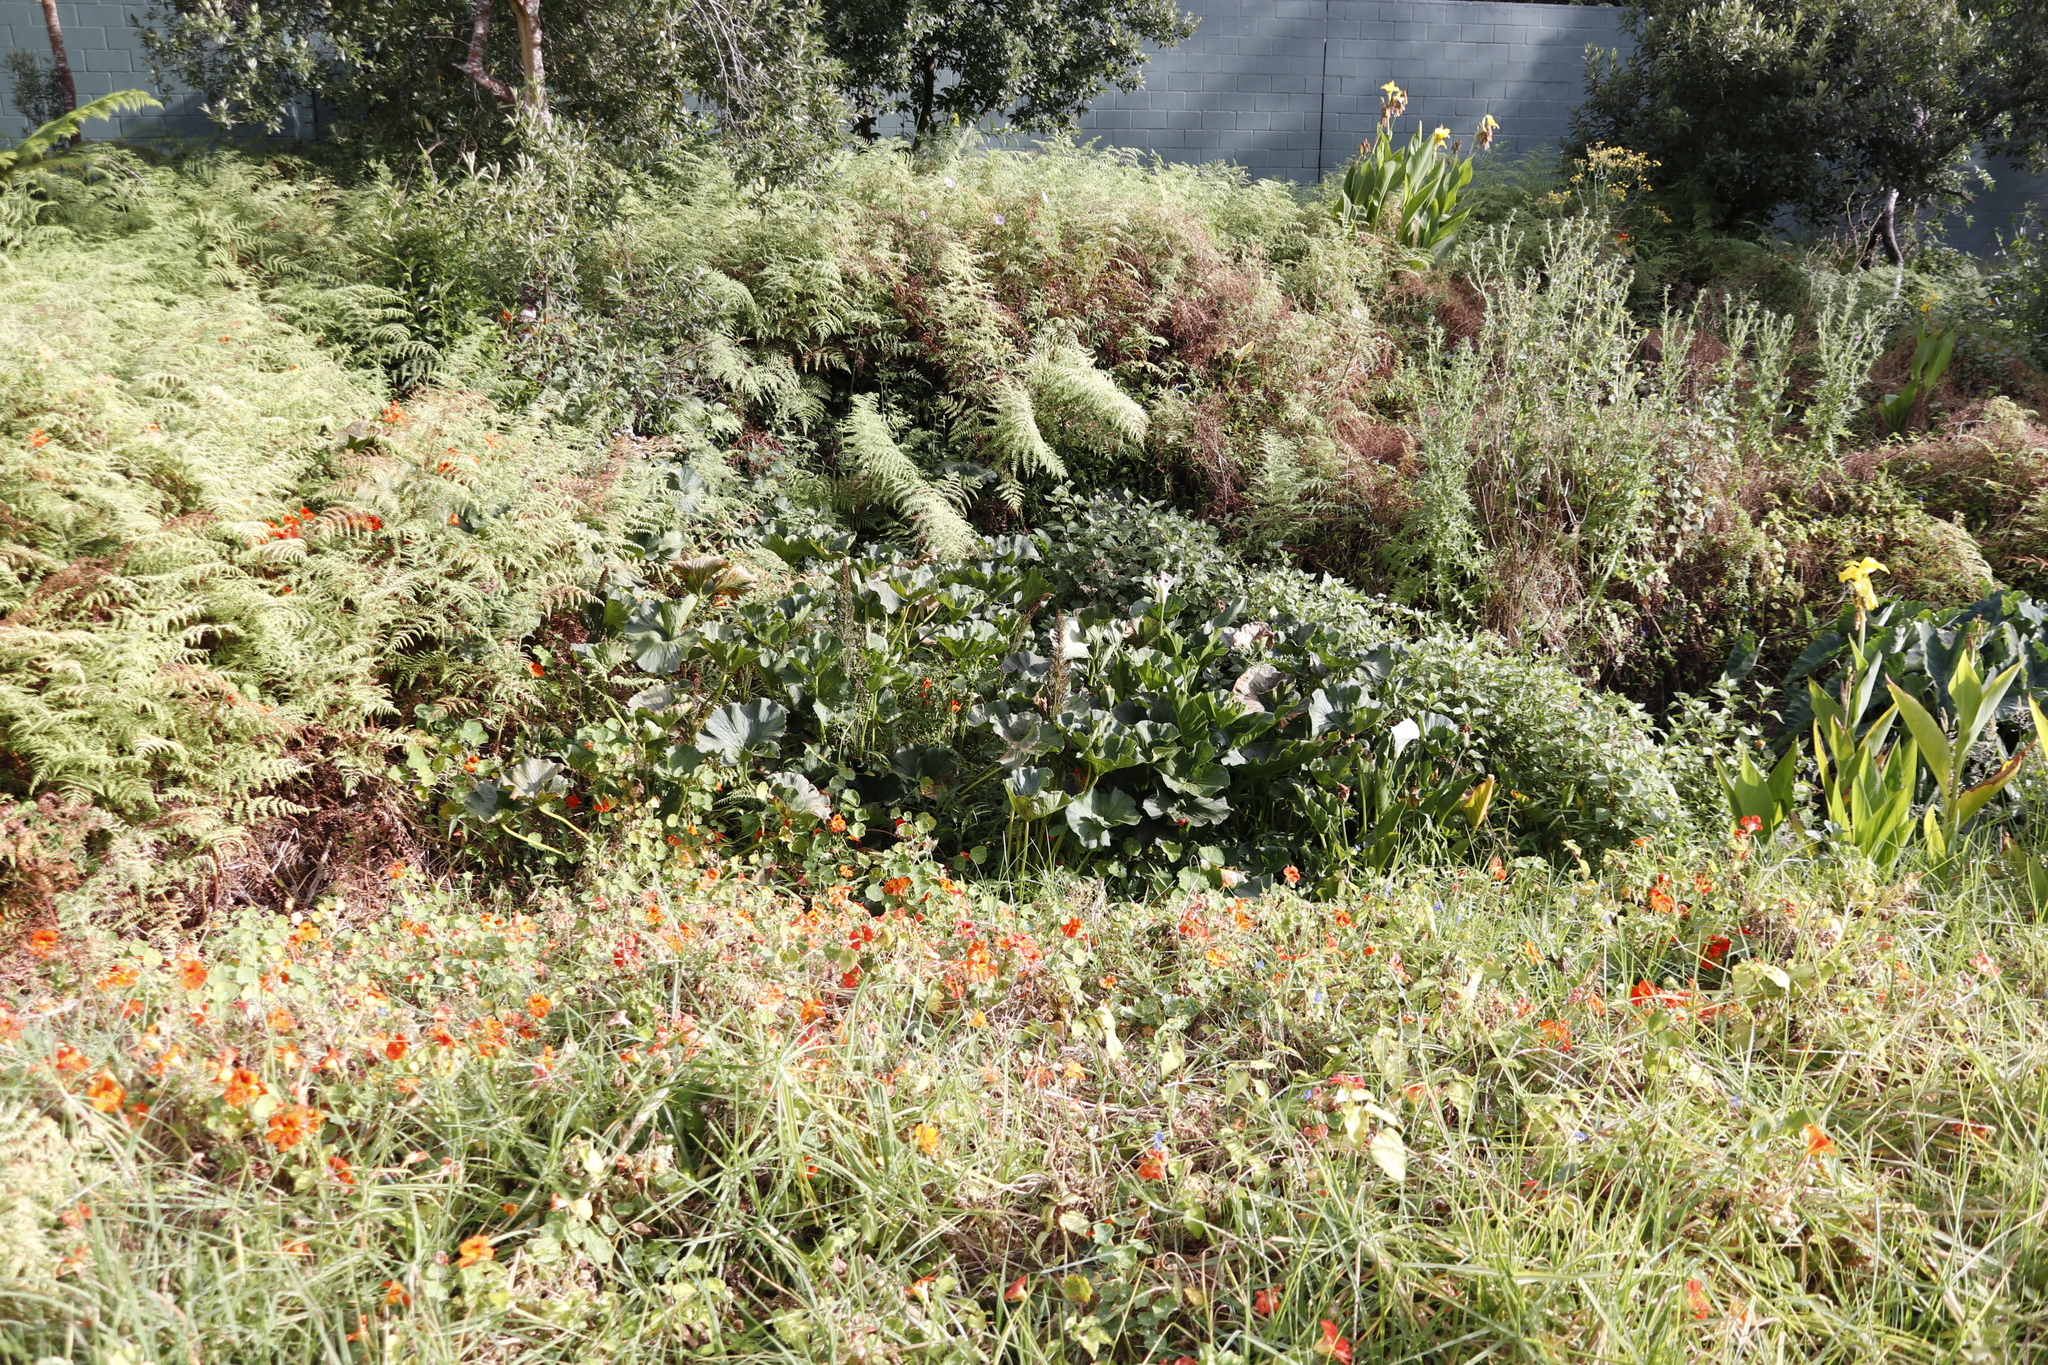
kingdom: Plantae
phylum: Tracheophyta
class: Magnoliopsida
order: Gunnerales
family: Gunneraceae
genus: Gunnera
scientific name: Gunnera perpensa
